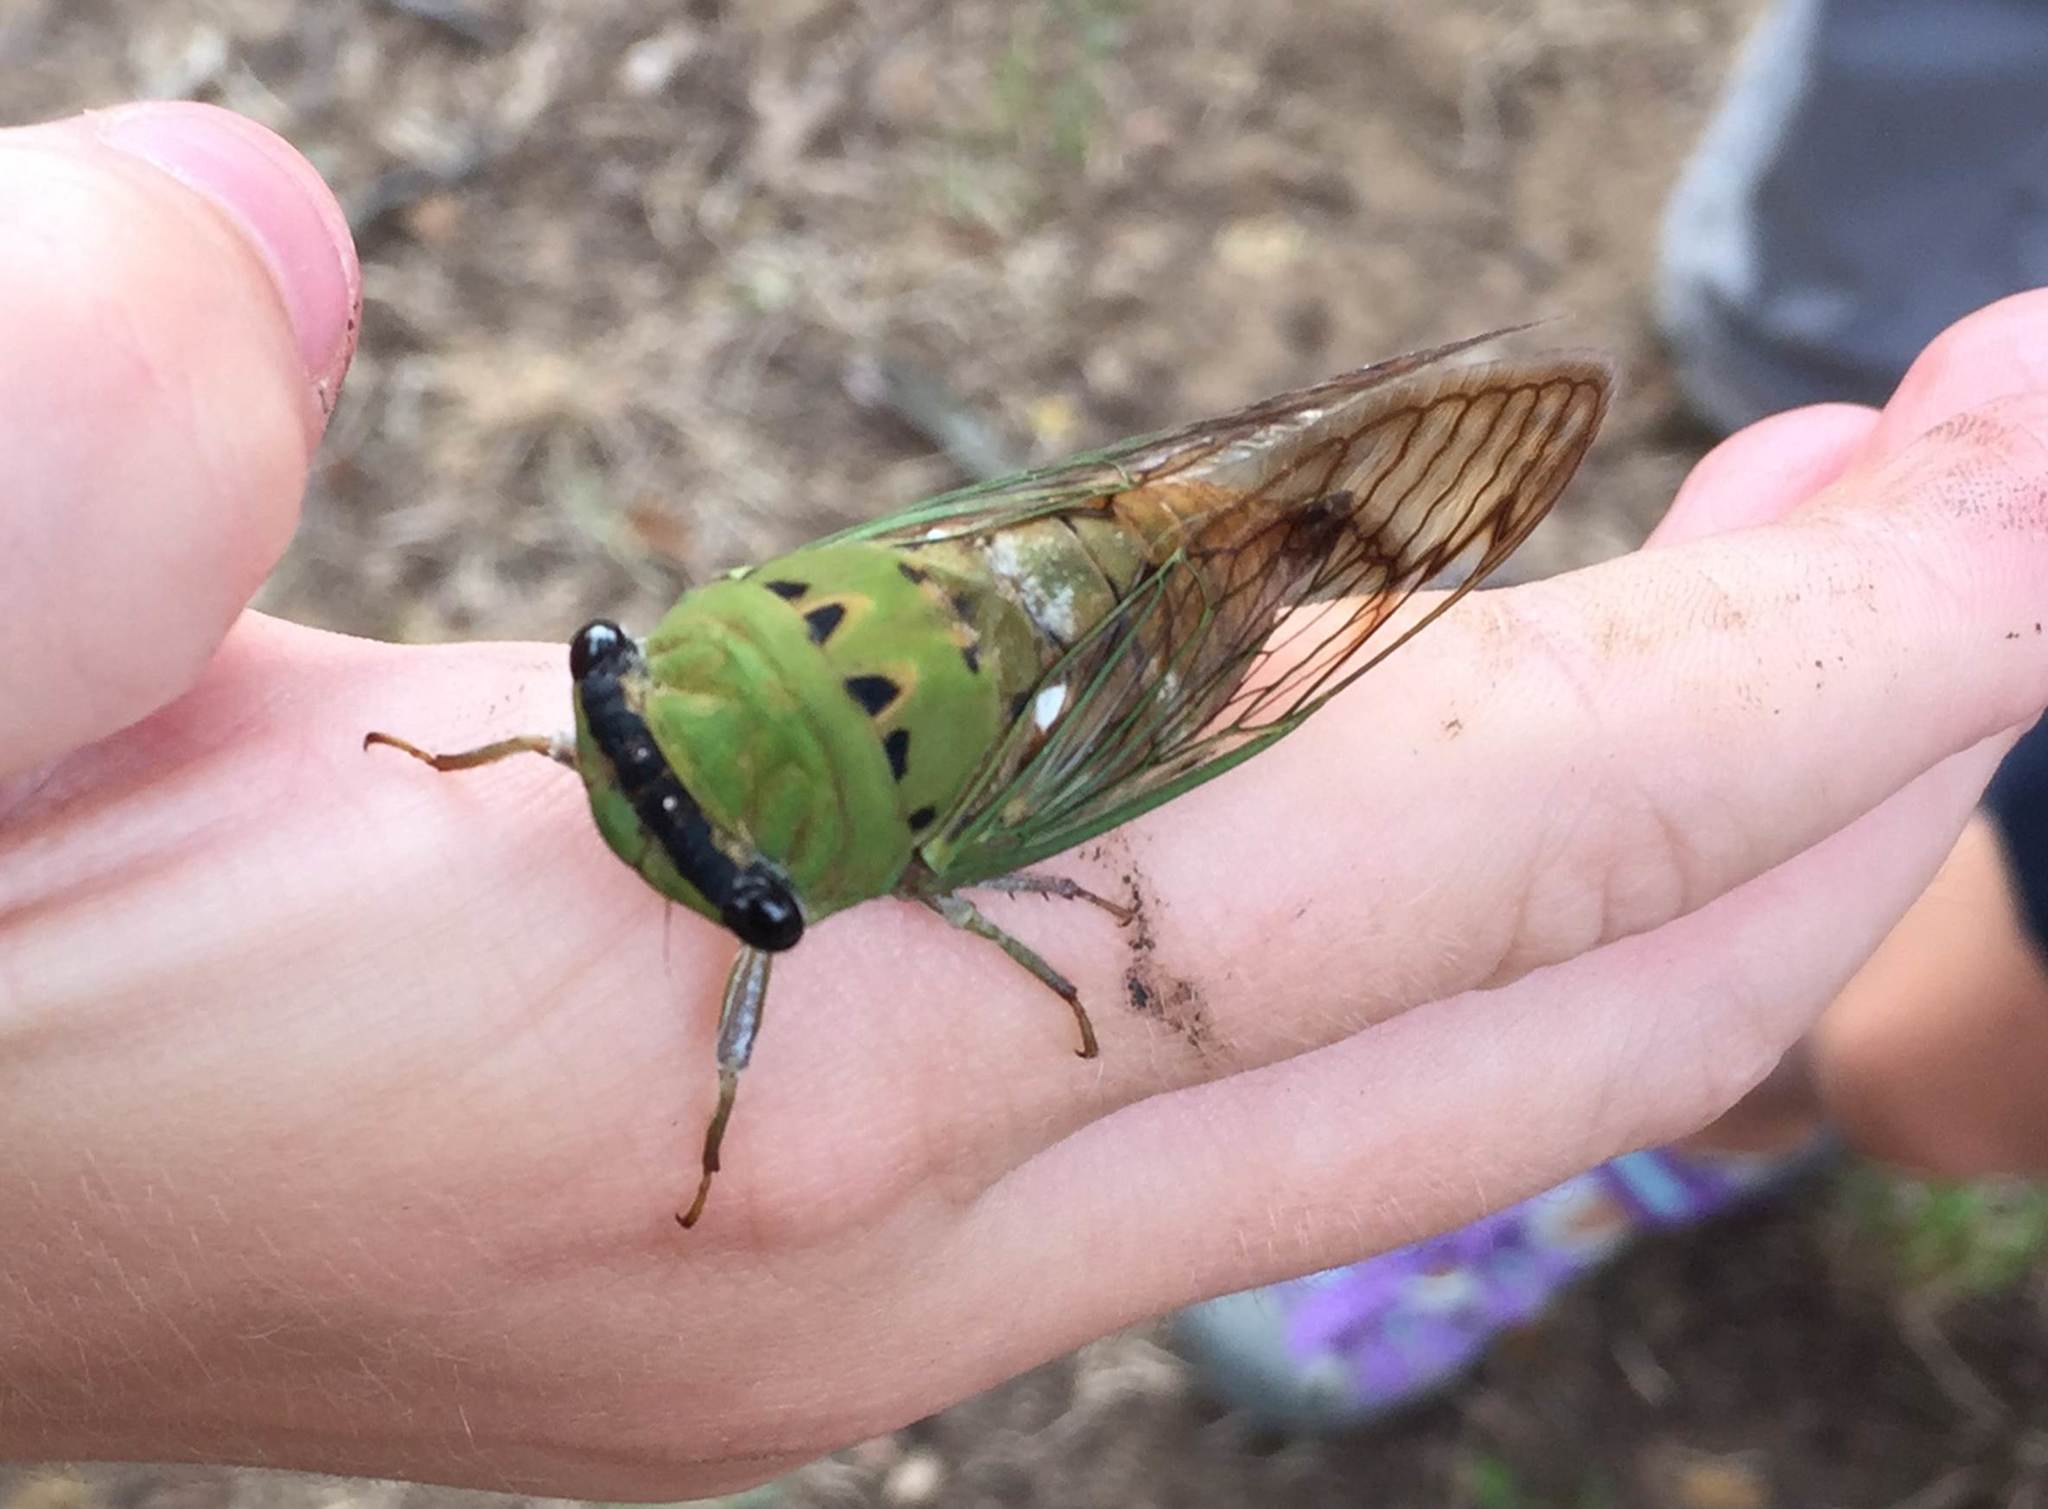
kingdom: Animalia
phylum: Arthropoda
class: Insecta
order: Hemiptera
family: Cicadidae
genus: Neotibicen
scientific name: Neotibicen superbus
